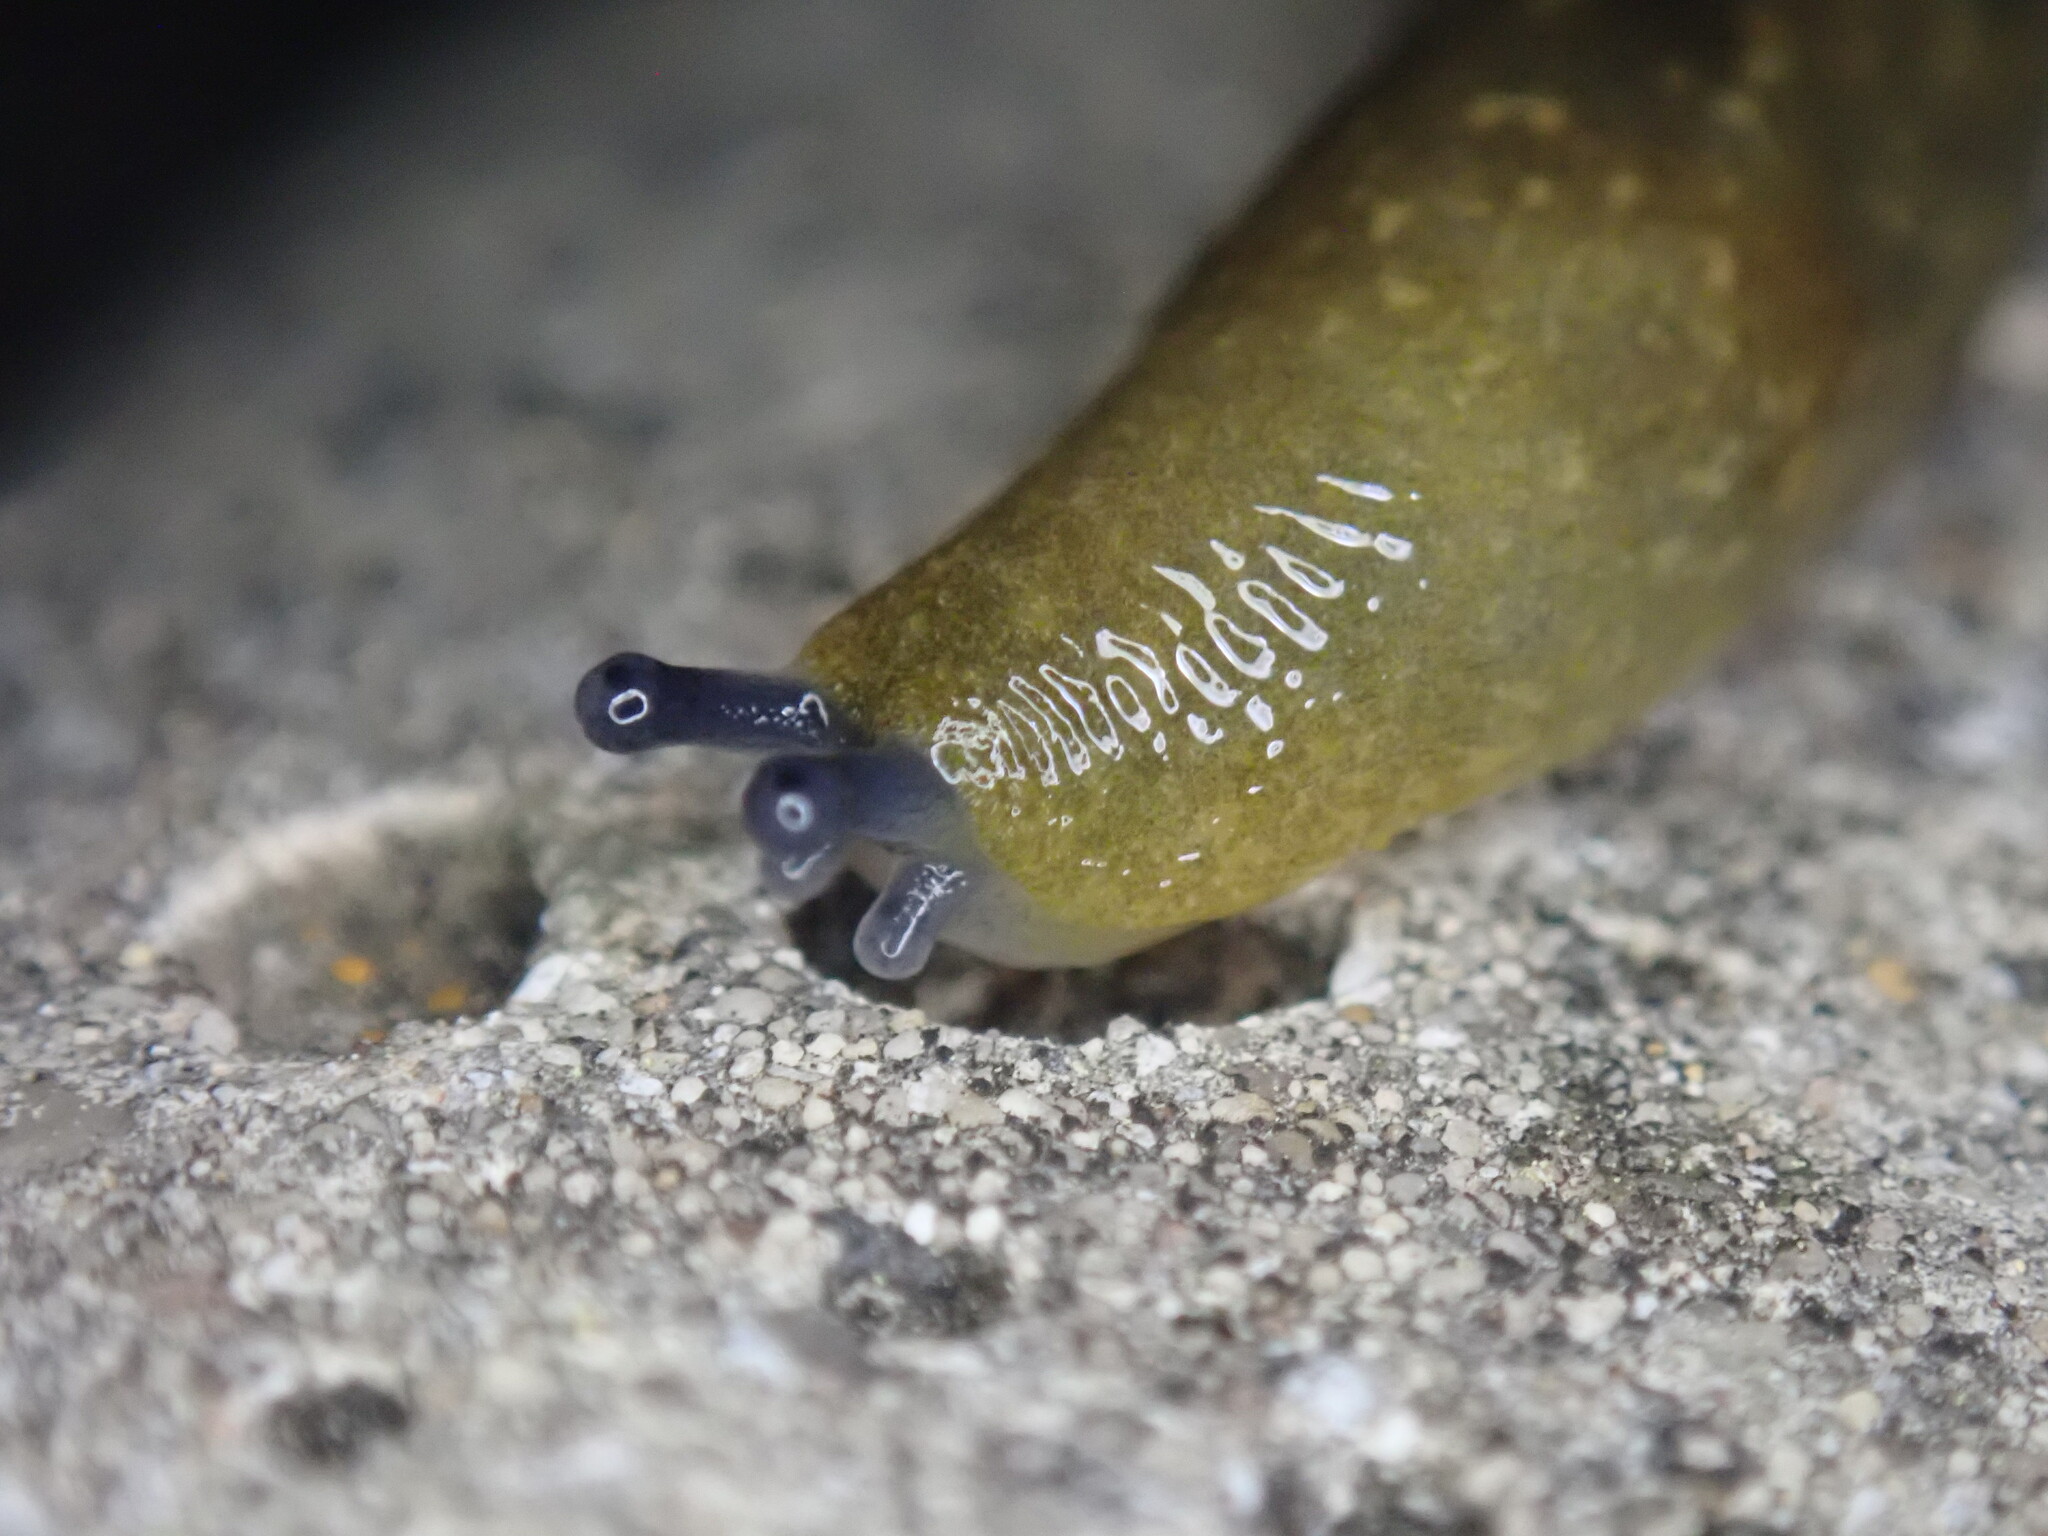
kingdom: Animalia
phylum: Mollusca
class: Gastropoda
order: Stylommatophora
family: Limacidae
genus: Limacus
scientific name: Limacus flavus
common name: Yellow gardenslug
